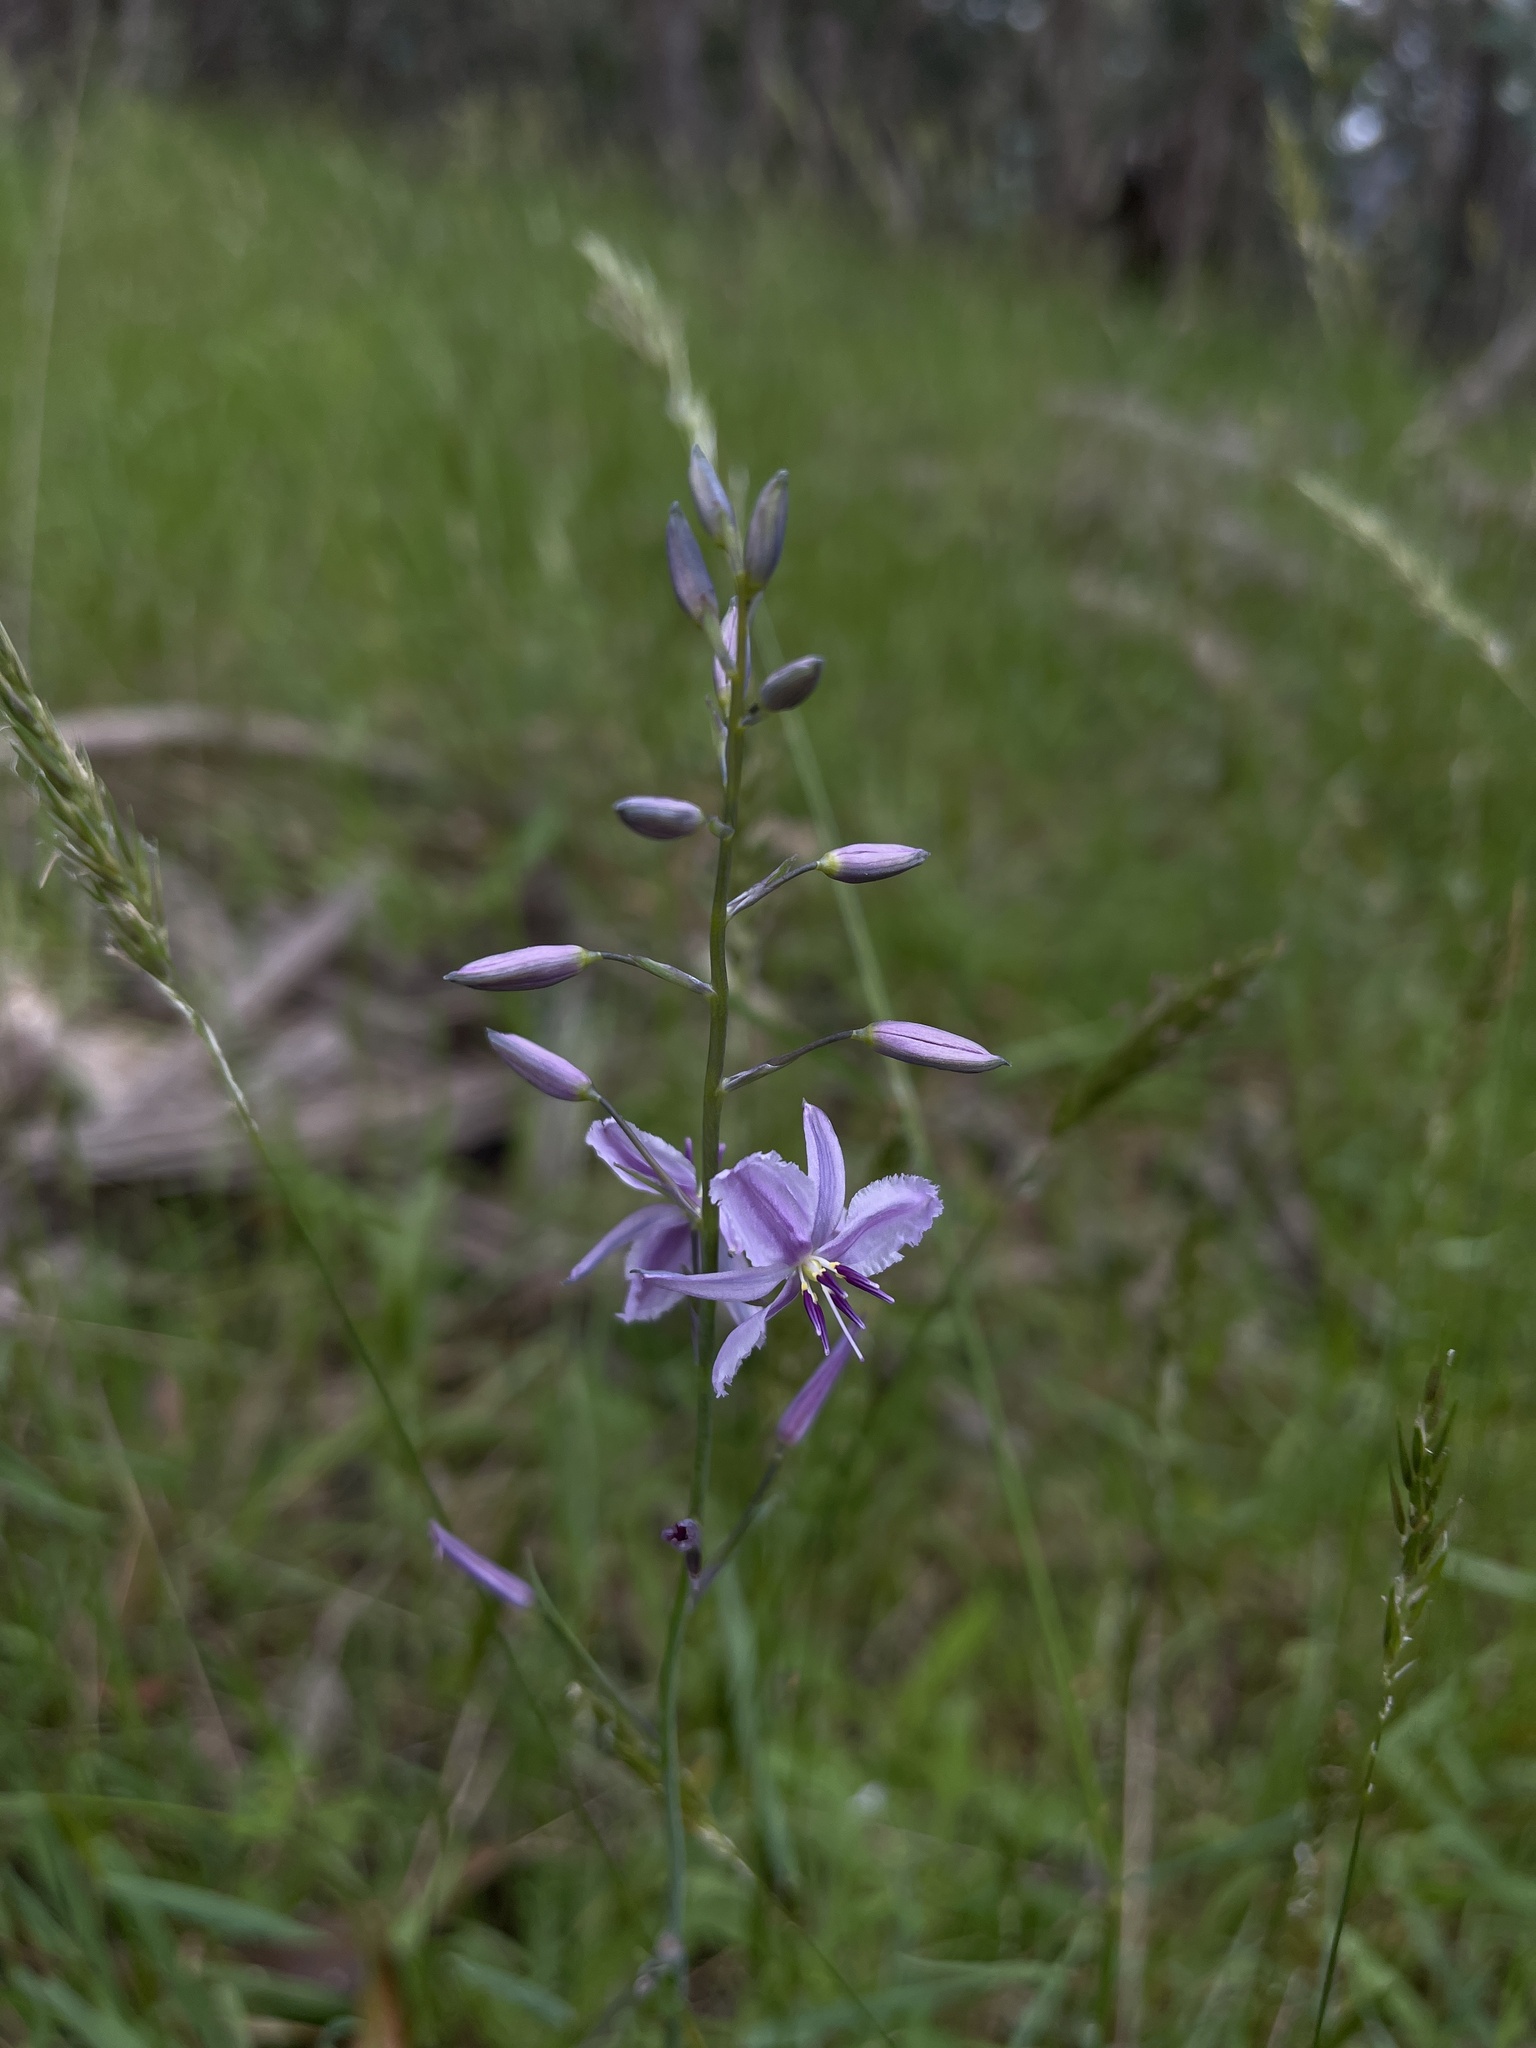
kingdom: Plantae
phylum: Tracheophyta
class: Liliopsida
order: Asparagales
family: Asparagaceae
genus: Arthropodium
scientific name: Arthropodium strictum
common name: Chocolate-lily
